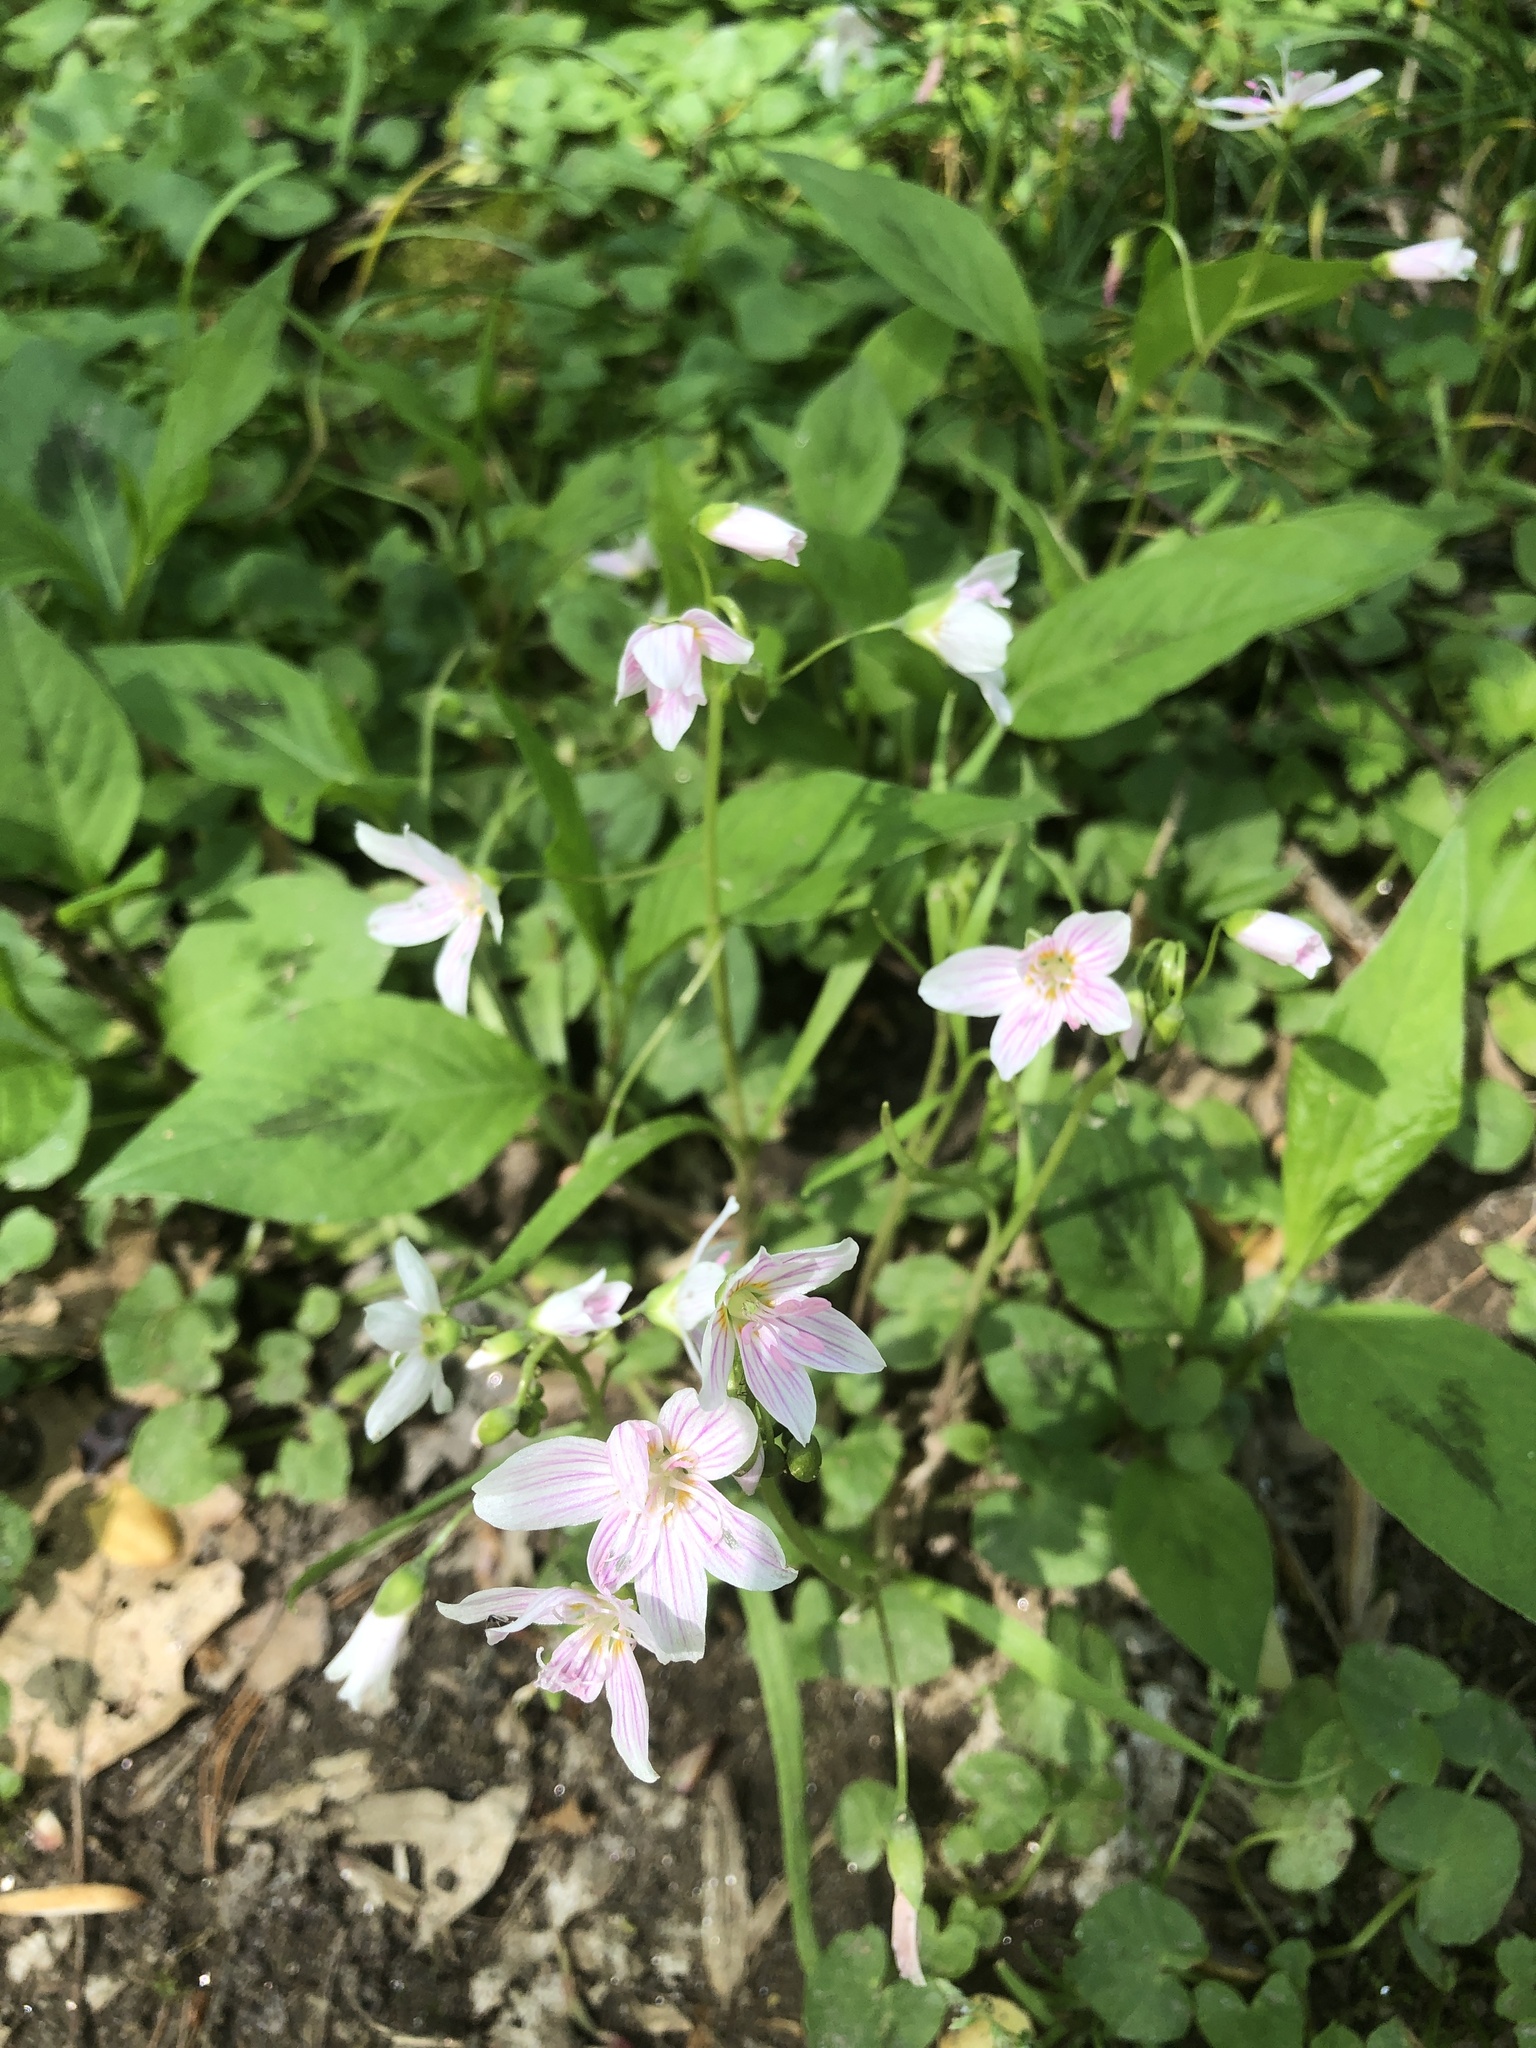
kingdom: Plantae
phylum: Tracheophyta
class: Magnoliopsida
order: Caryophyllales
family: Montiaceae
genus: Claytonia
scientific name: Claytonia virginica
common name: Virginia springbeauty
